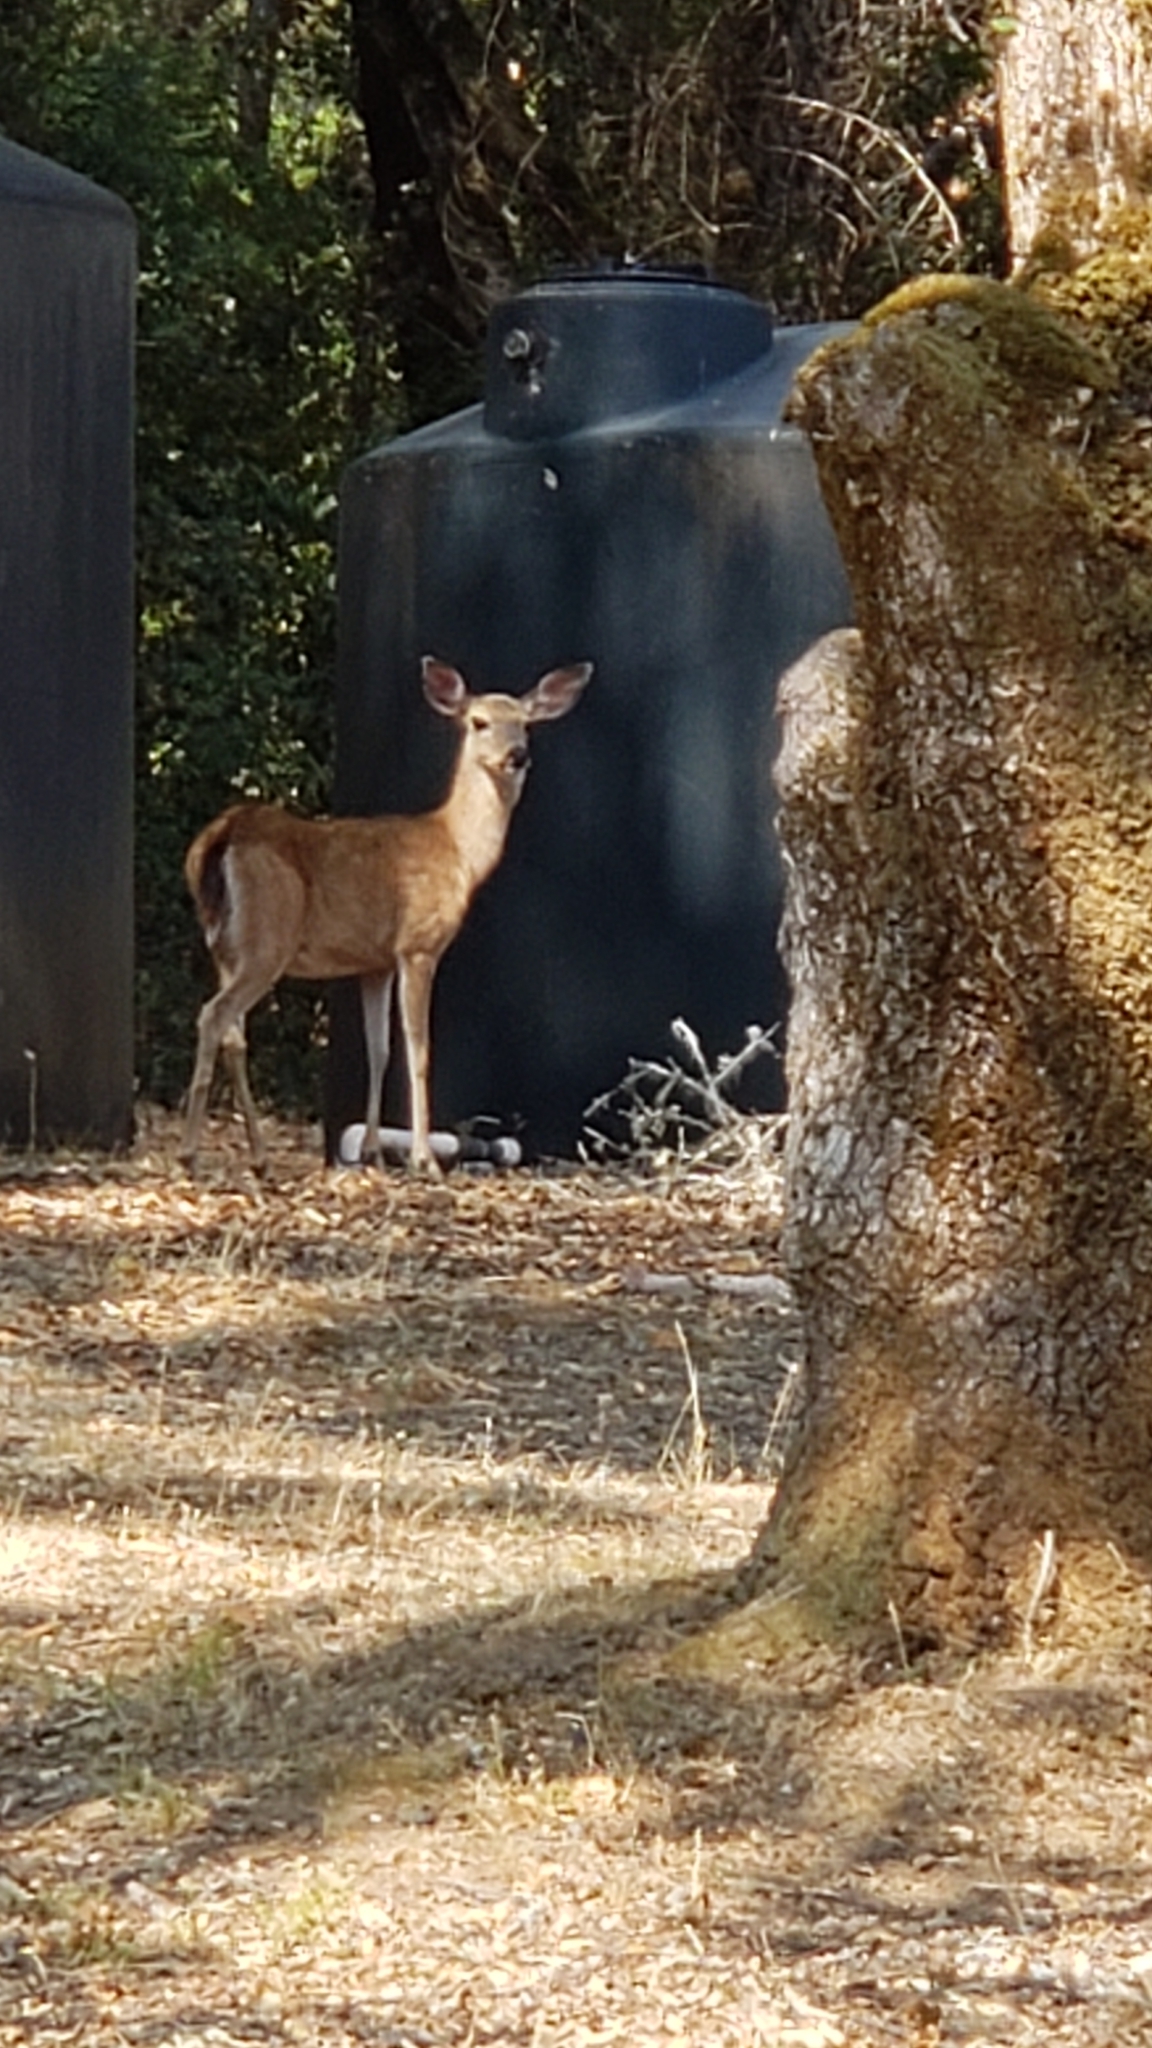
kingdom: Animalia
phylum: Chordata
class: Mammalia
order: Artiodactyla
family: Cervidae
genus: Odocoileus
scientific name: Odocoileus hemionus
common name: Mule deer
